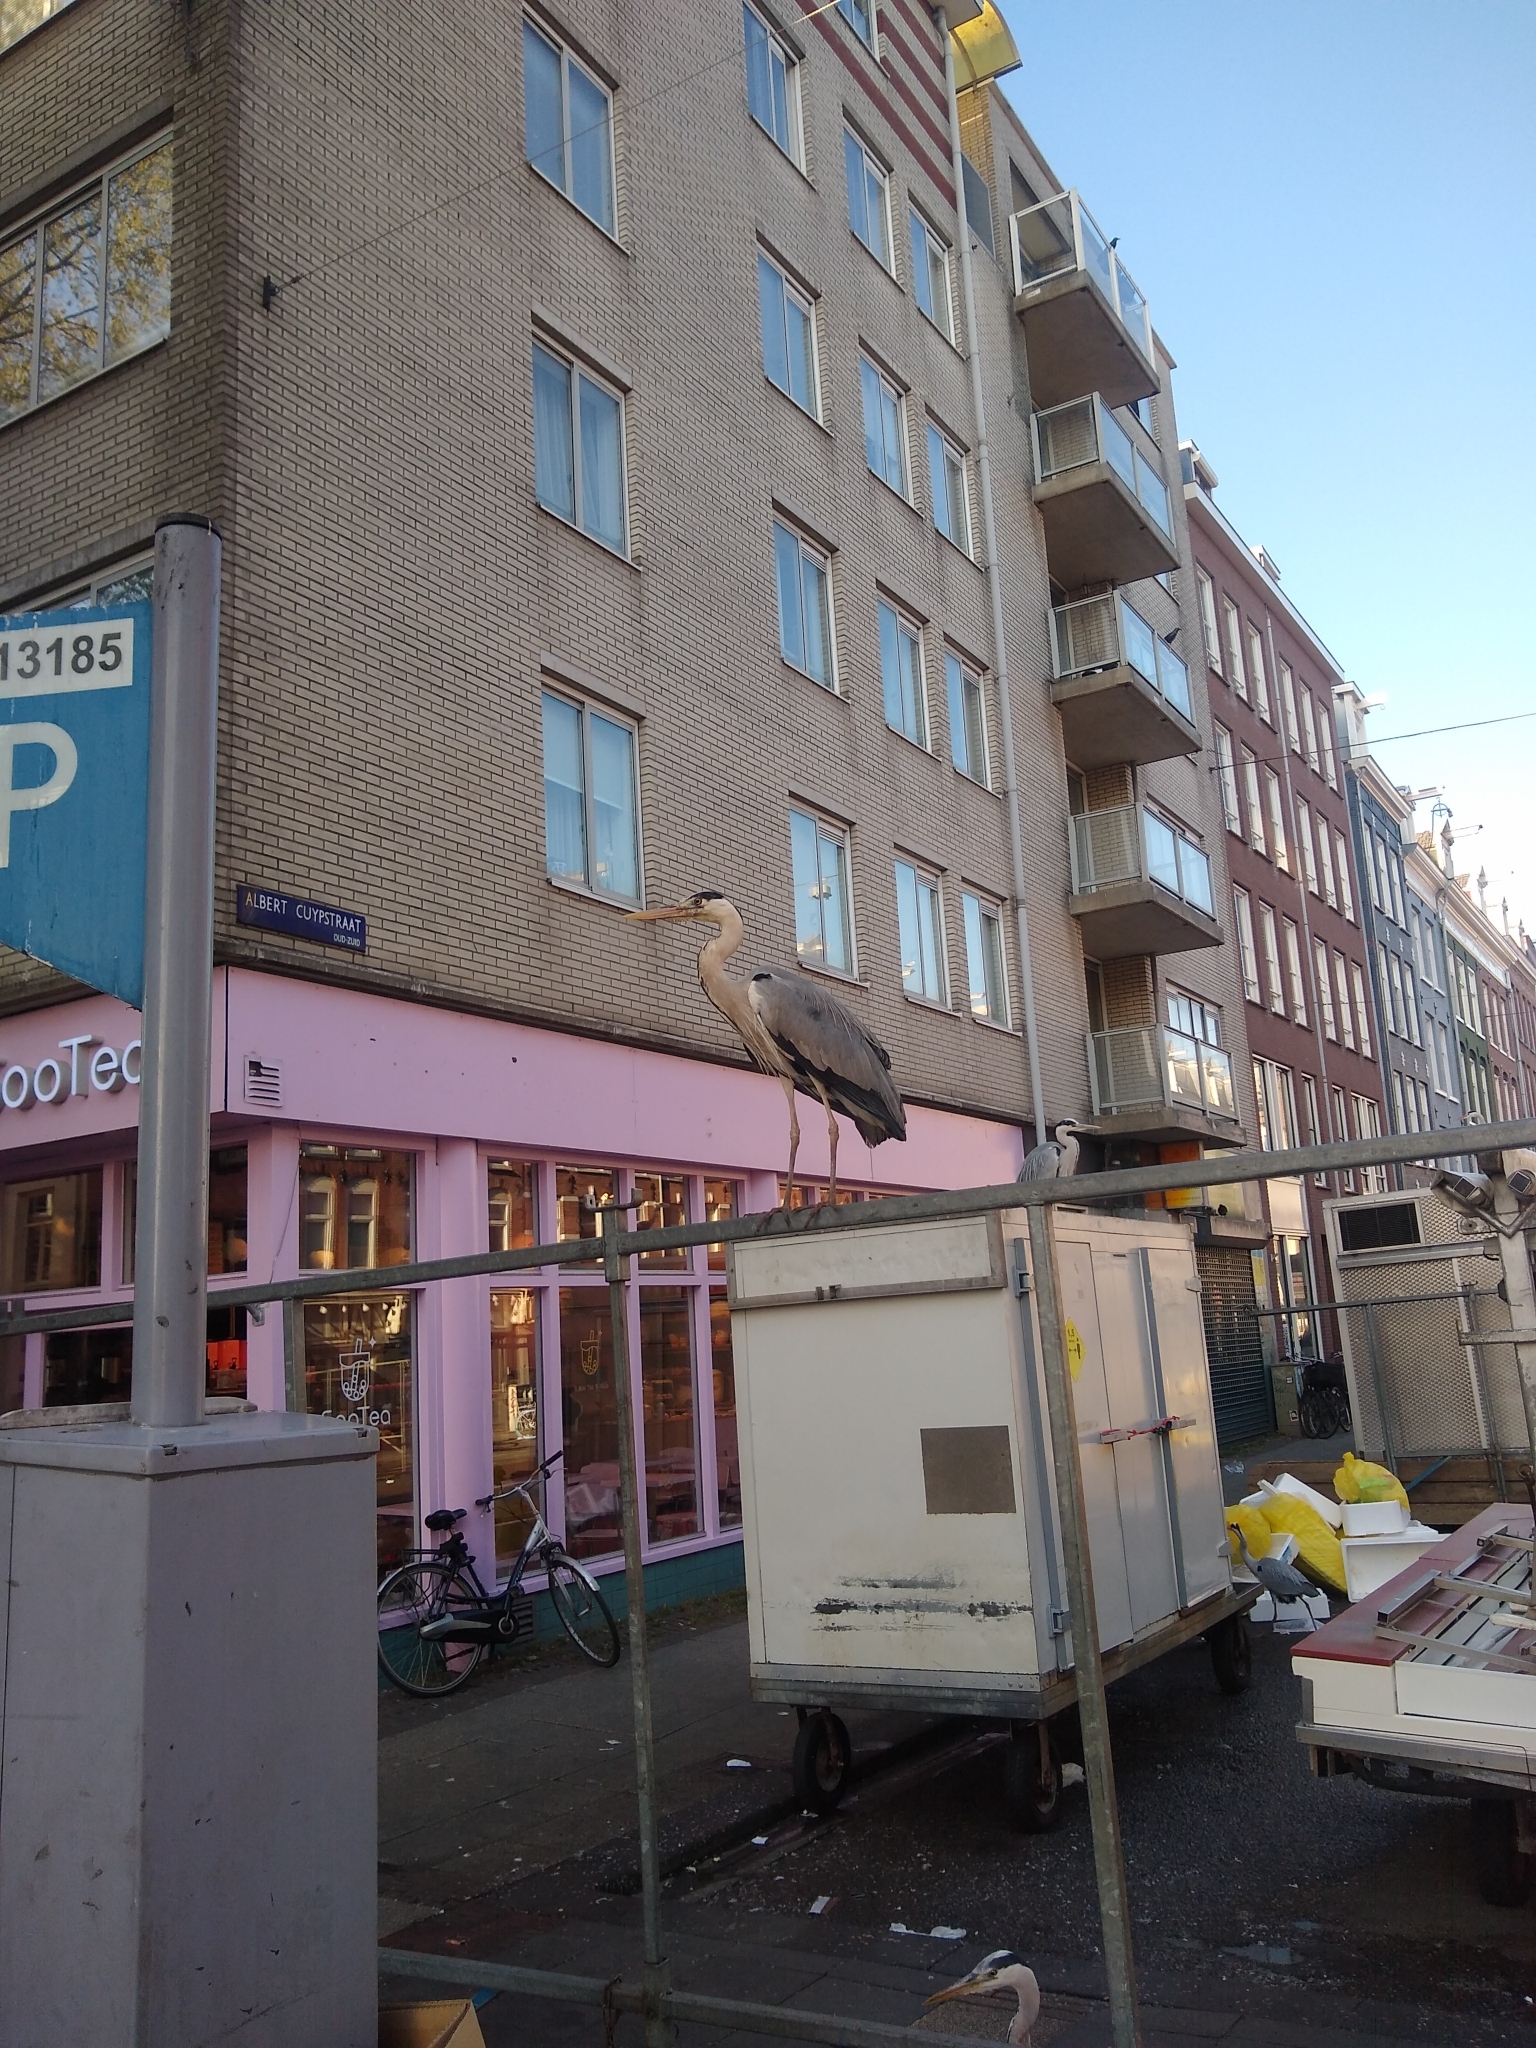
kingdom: Animalia
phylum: Chordata
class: Aves
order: Pelecaniformes
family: Ardeidae
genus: Ardea
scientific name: Ardea cinerea
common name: Grey heron
